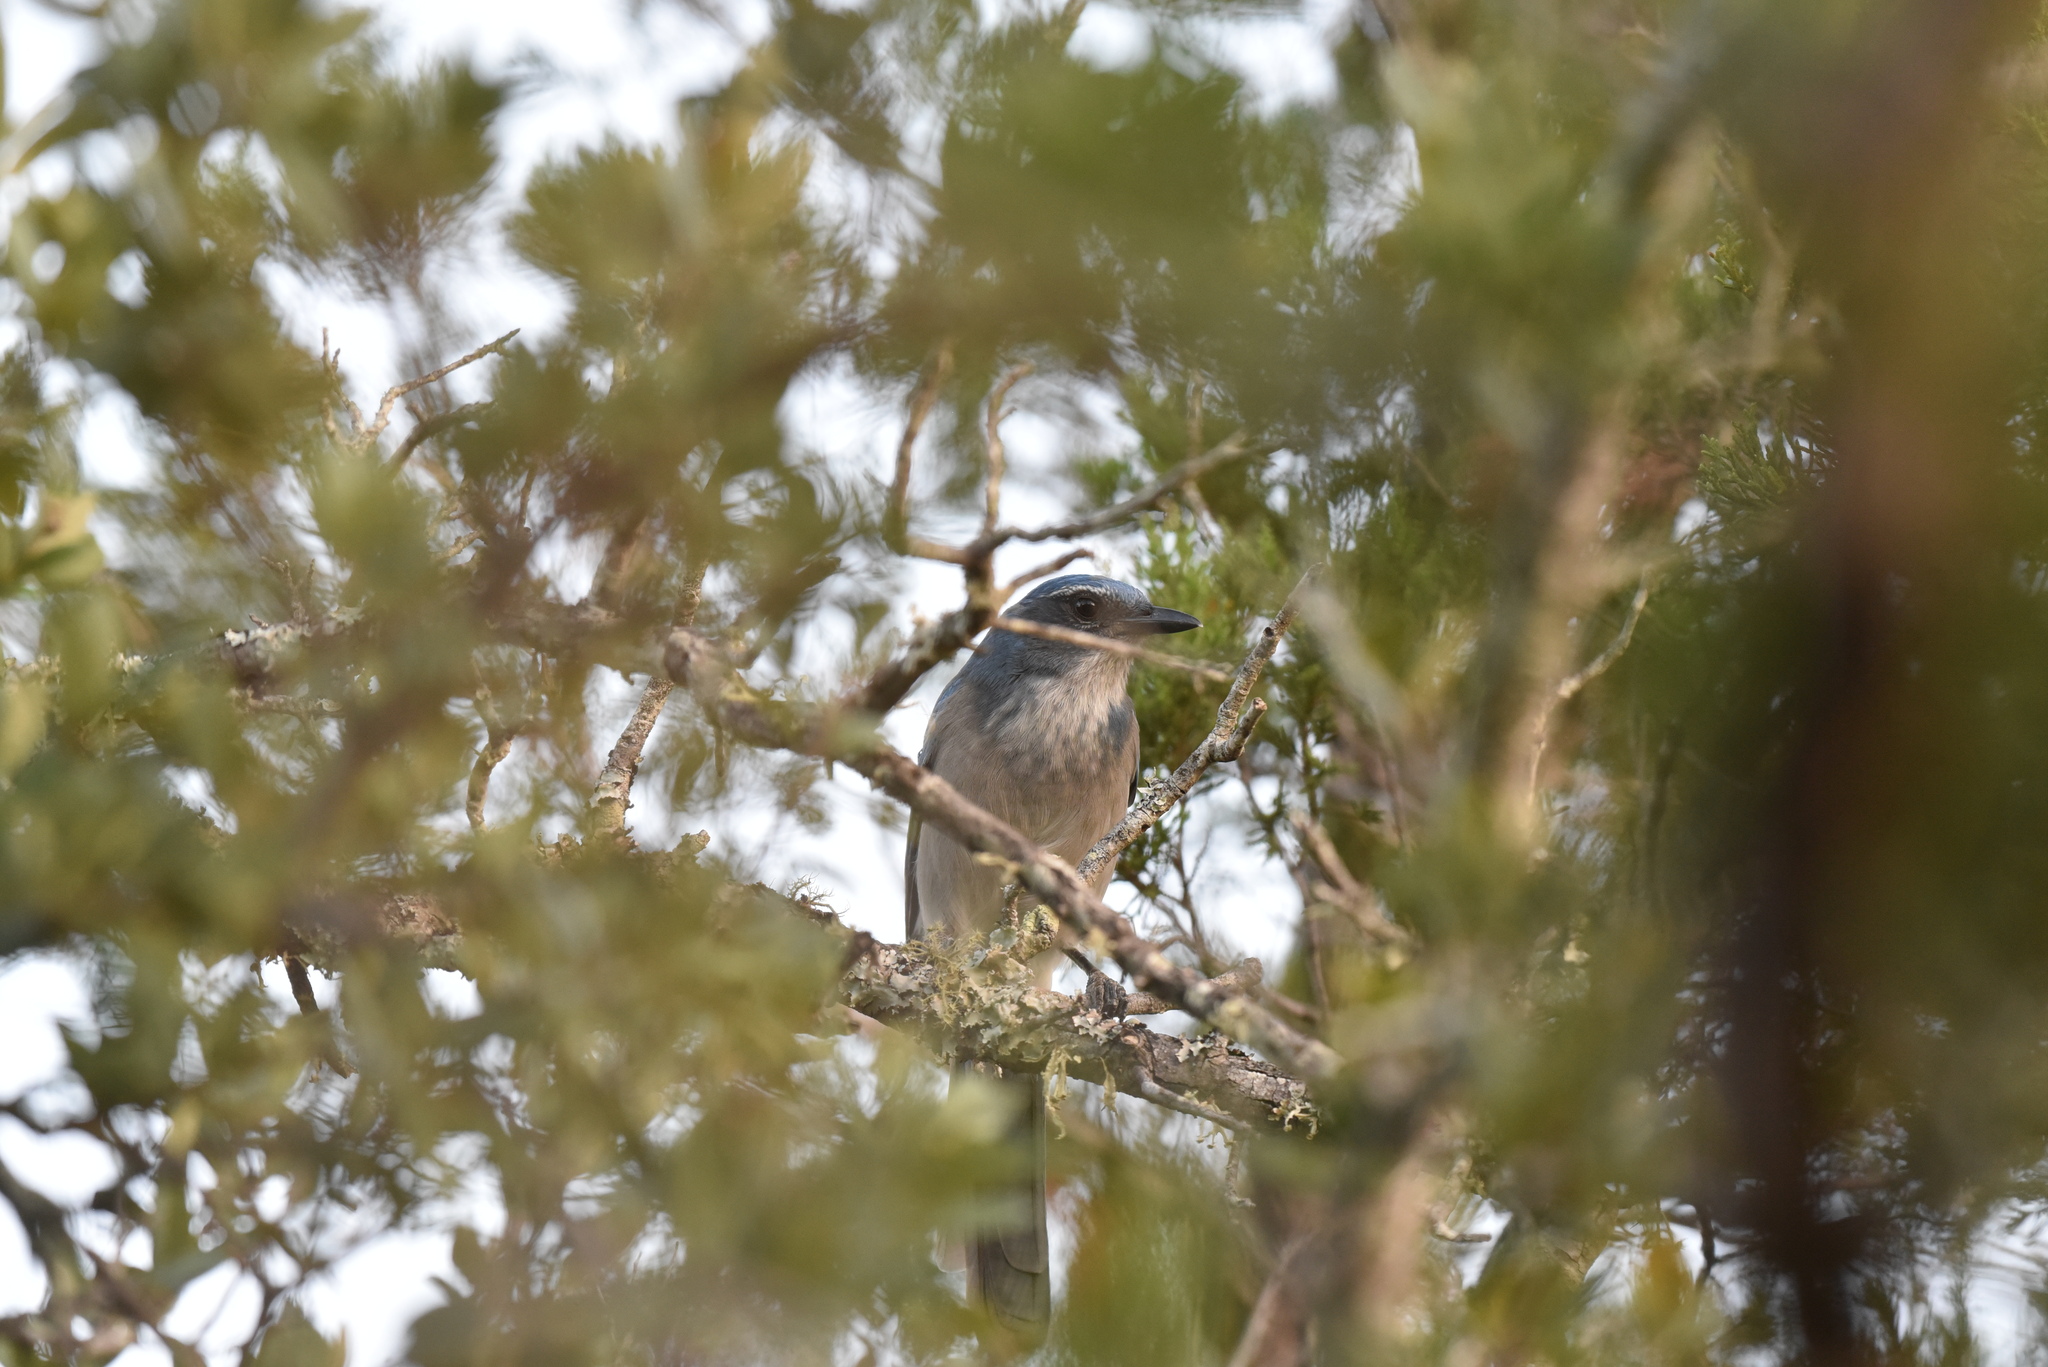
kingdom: Animalia
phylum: Chordata
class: Aves
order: Passeriformes
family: Corvidae
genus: Aphelocoma
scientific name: Aphelocoma woodhouseii
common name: Woodhouse's scrub-jay
